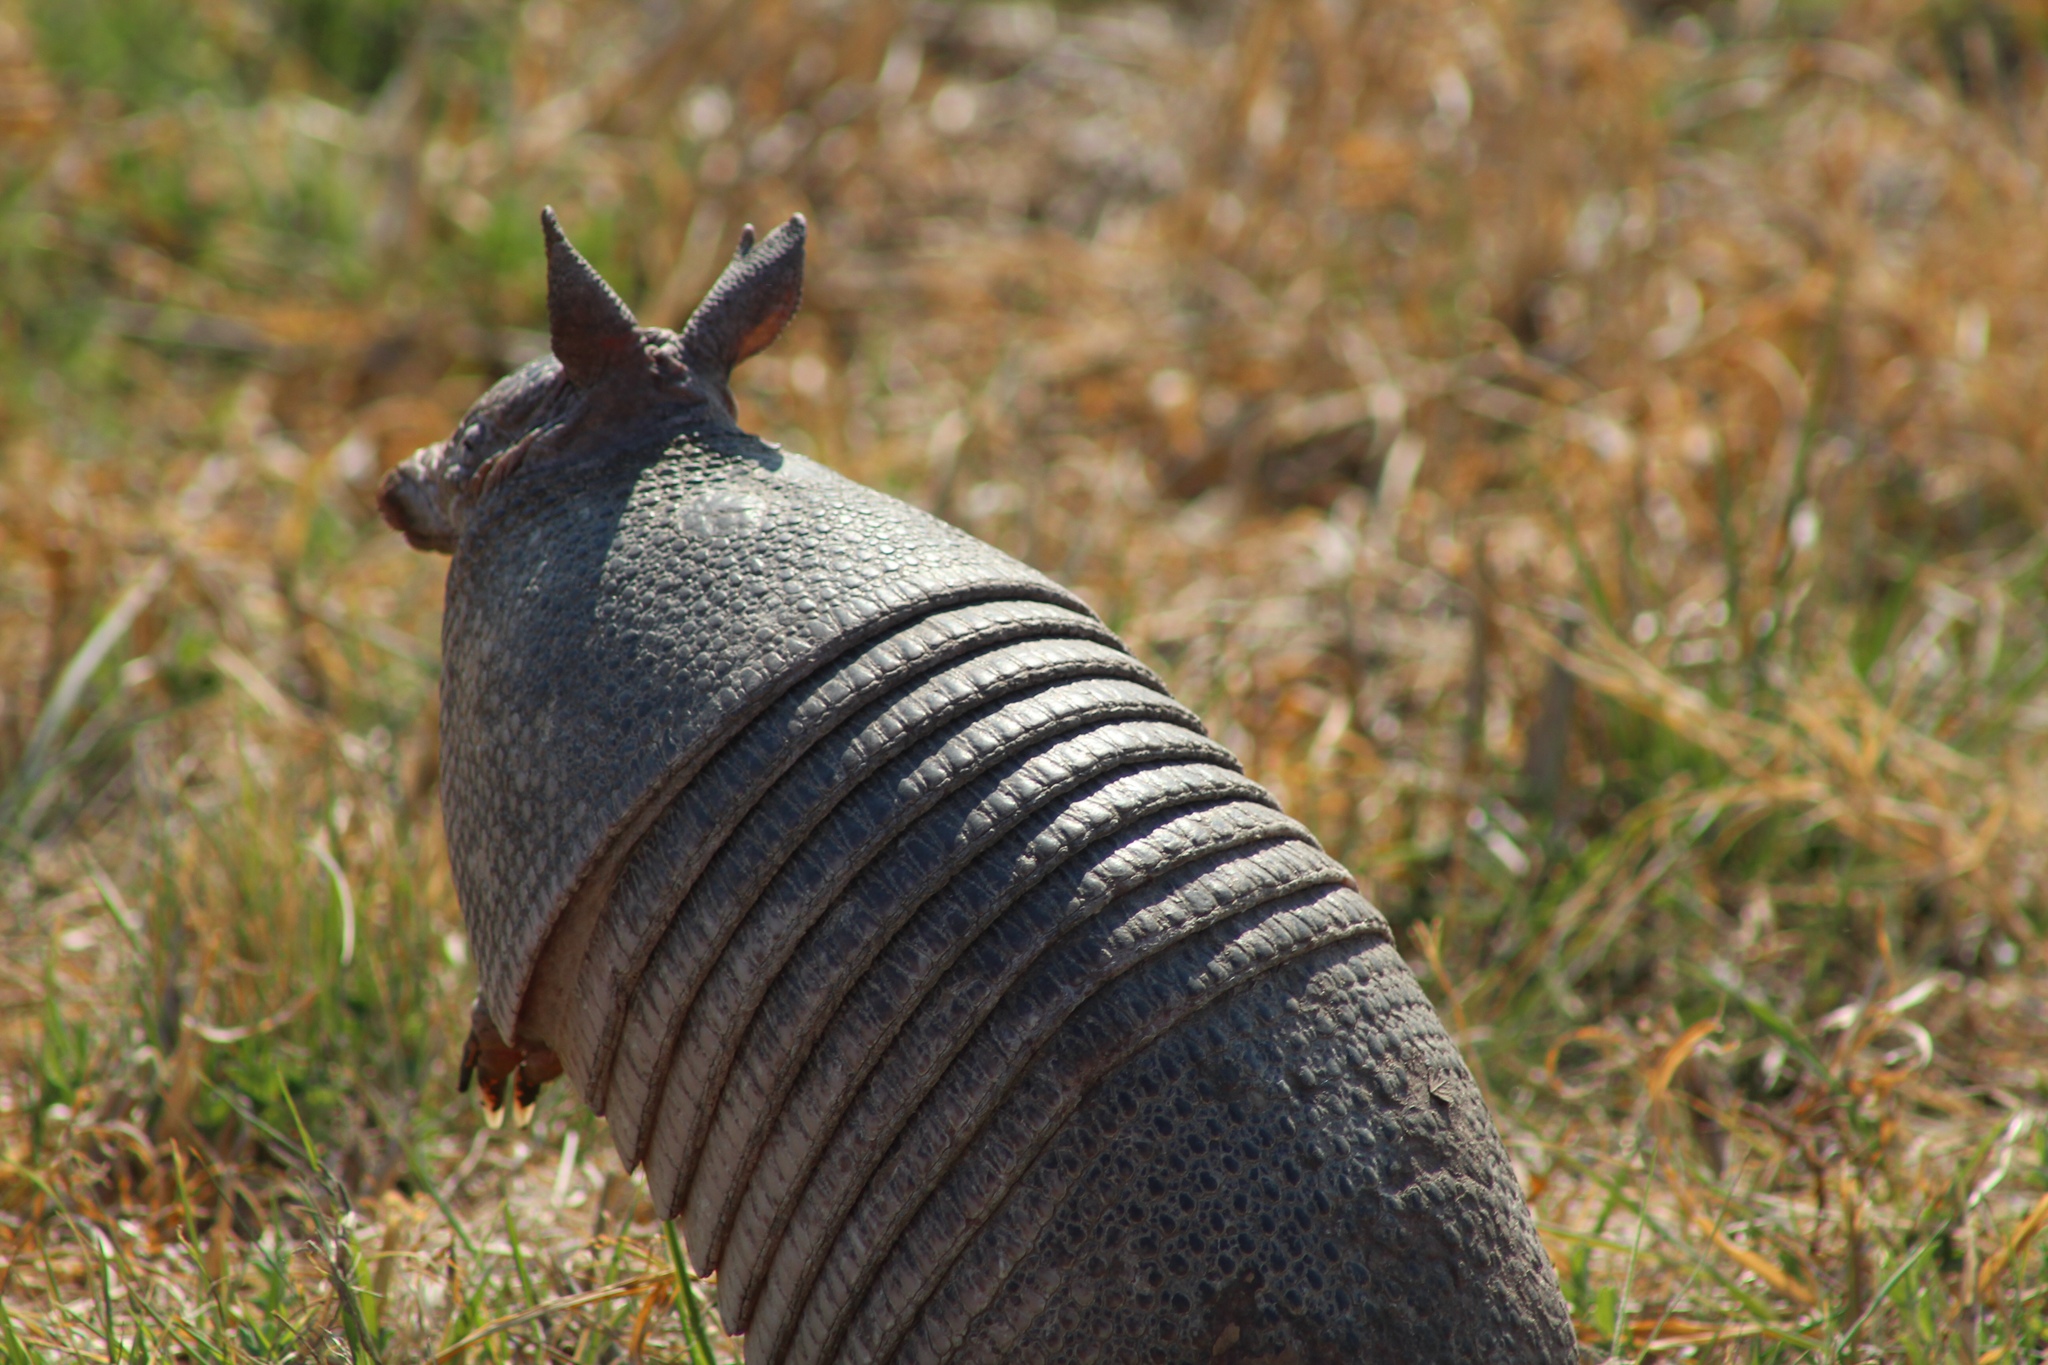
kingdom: Animalia
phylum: Chordata
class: Mammalia
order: Cingulata
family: Dasypodidae
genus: Dasypus
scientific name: Dasypus novemcinctus
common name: Nine-banded armadillo
